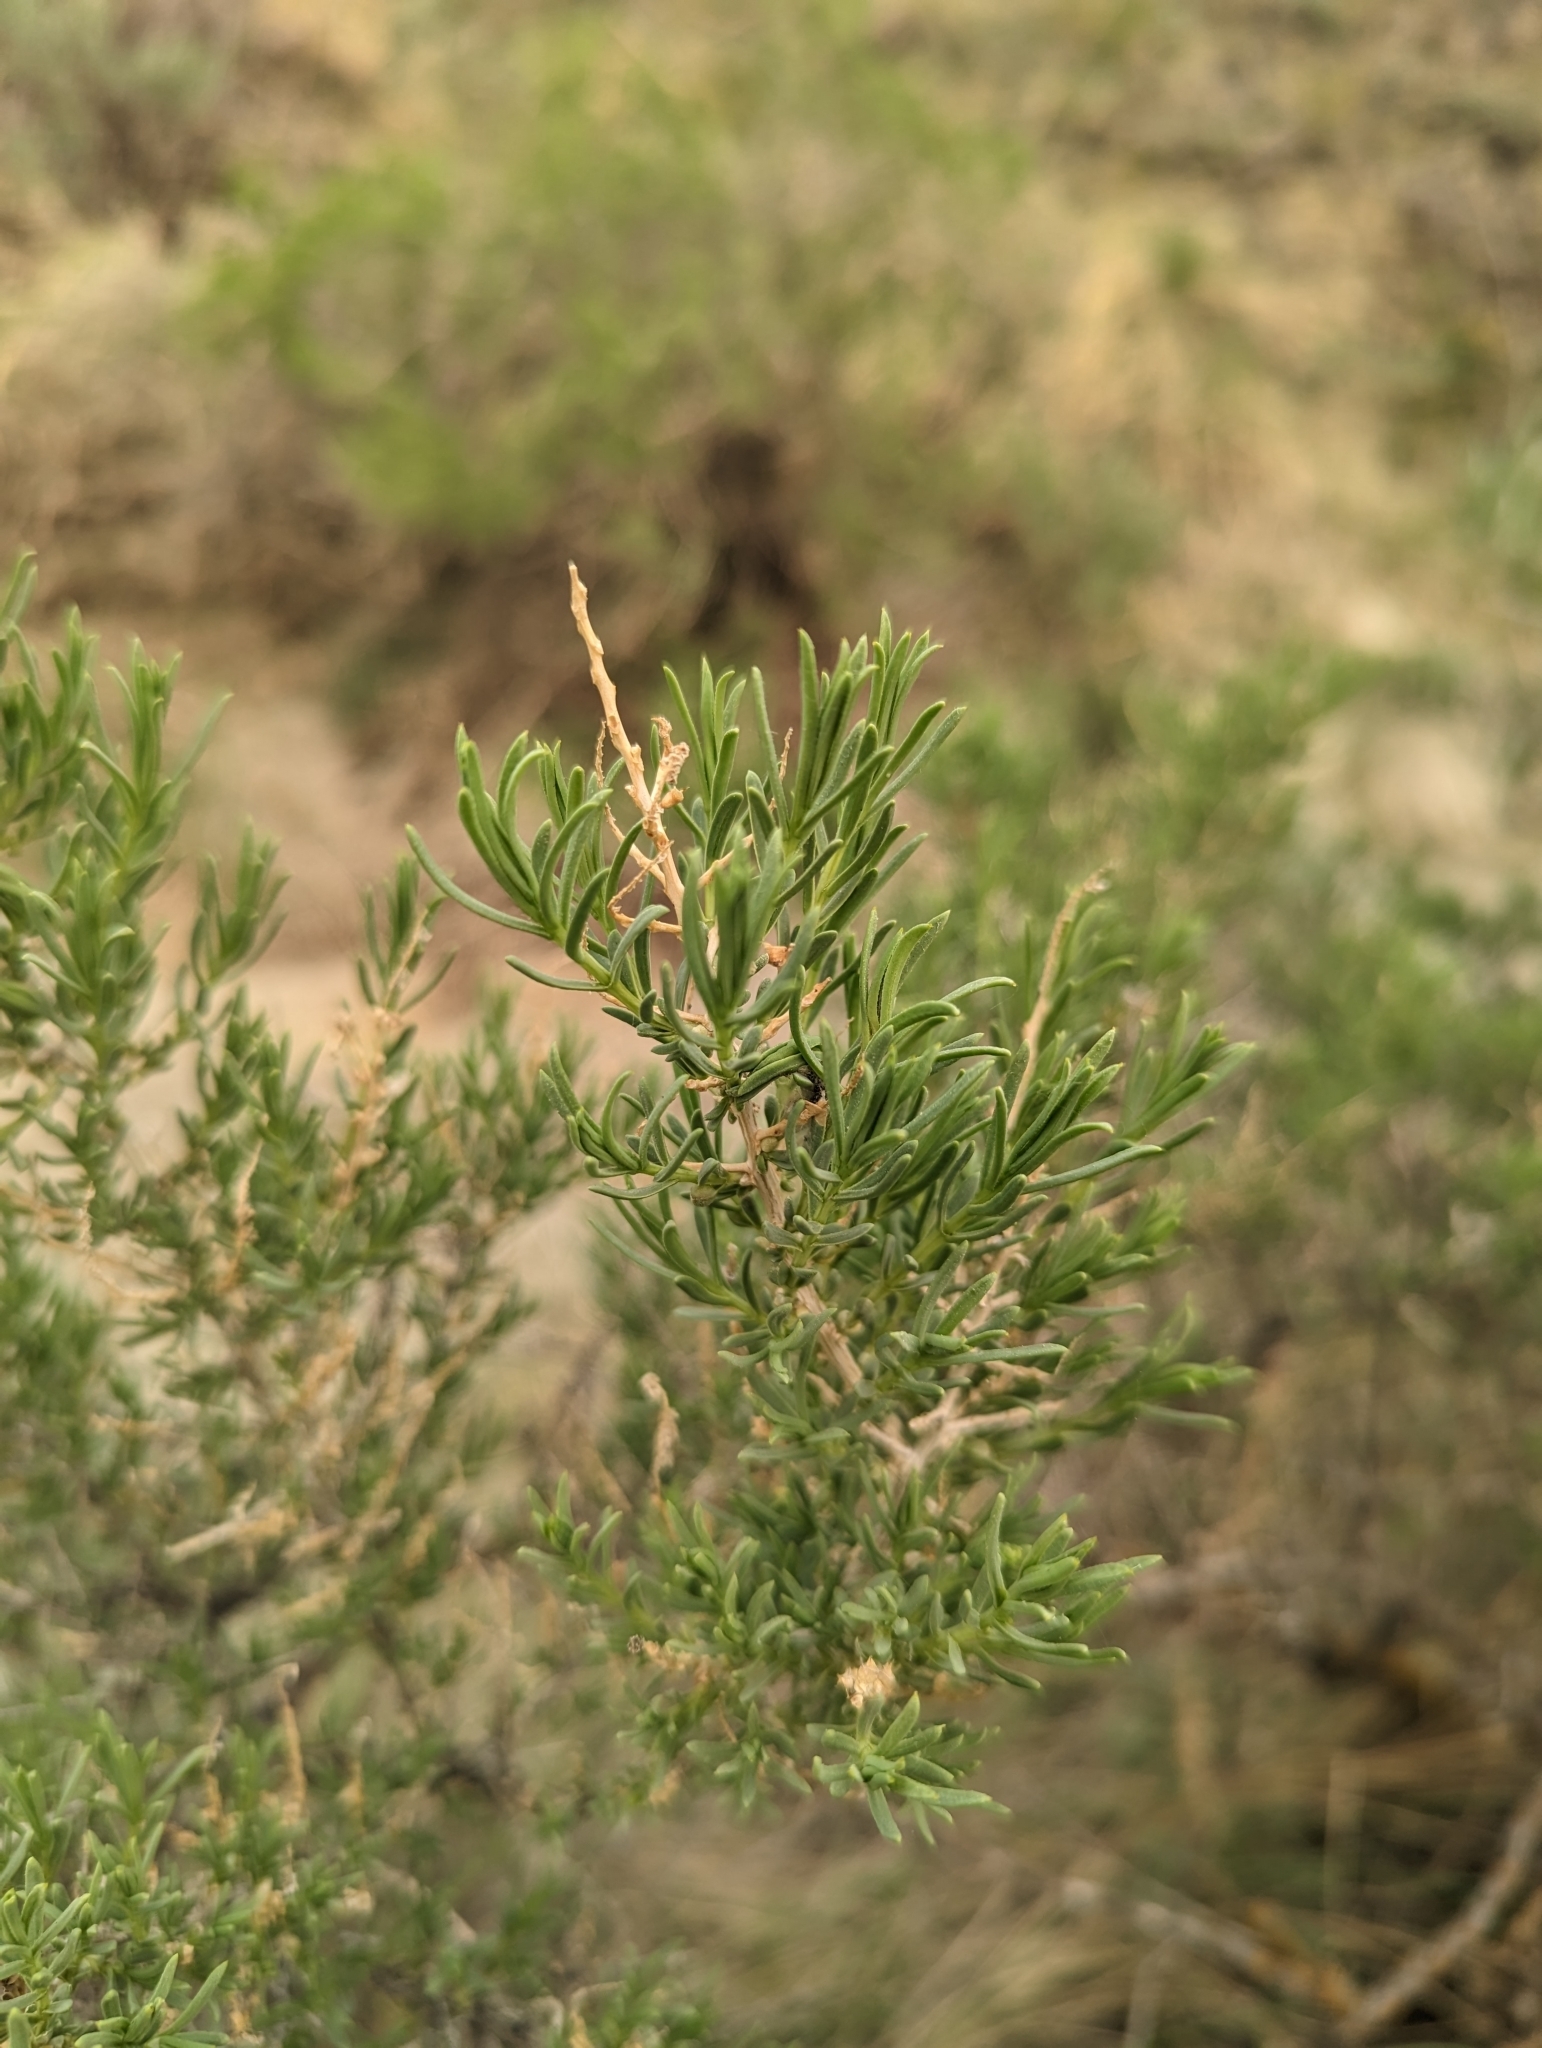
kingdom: Plantae
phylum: Tracheophyta
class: Magnoliopsida
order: Caryophyllales
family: Sarcobataceae
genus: Sarcobatus
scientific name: Sarcobatus vermiculatus
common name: Greasewood
